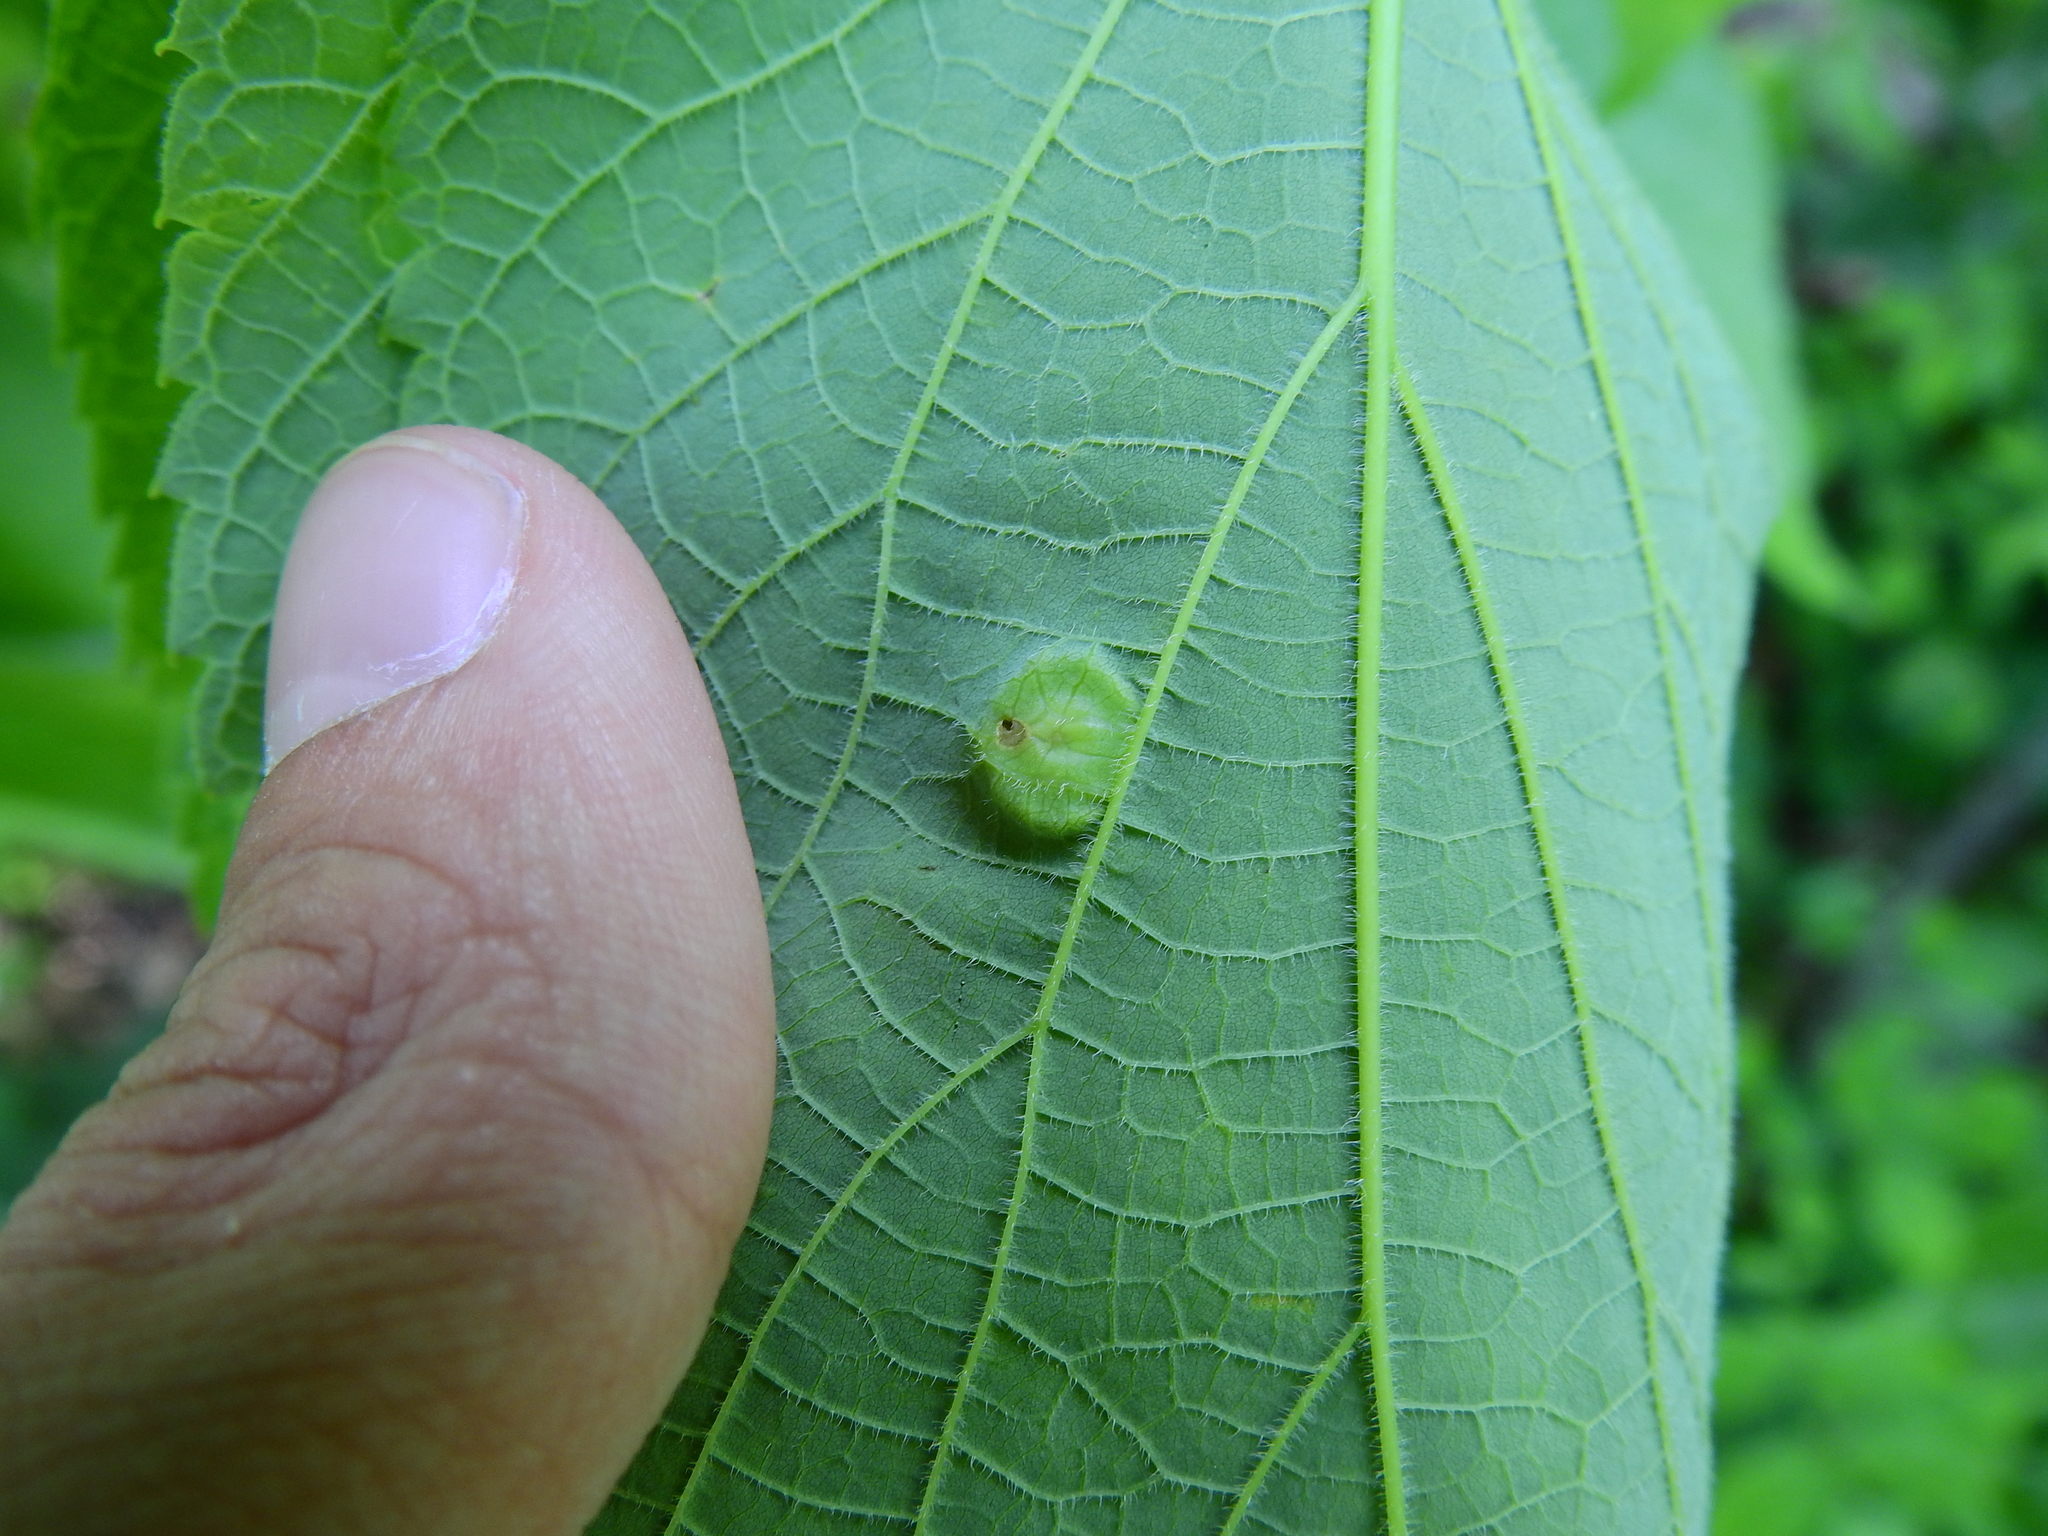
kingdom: Animalia
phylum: Arthropoda
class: Insecta
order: Hemiptera
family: Aphalaridae
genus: Pachypsylla
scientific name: Pachypsylla celtidisumbilicus
